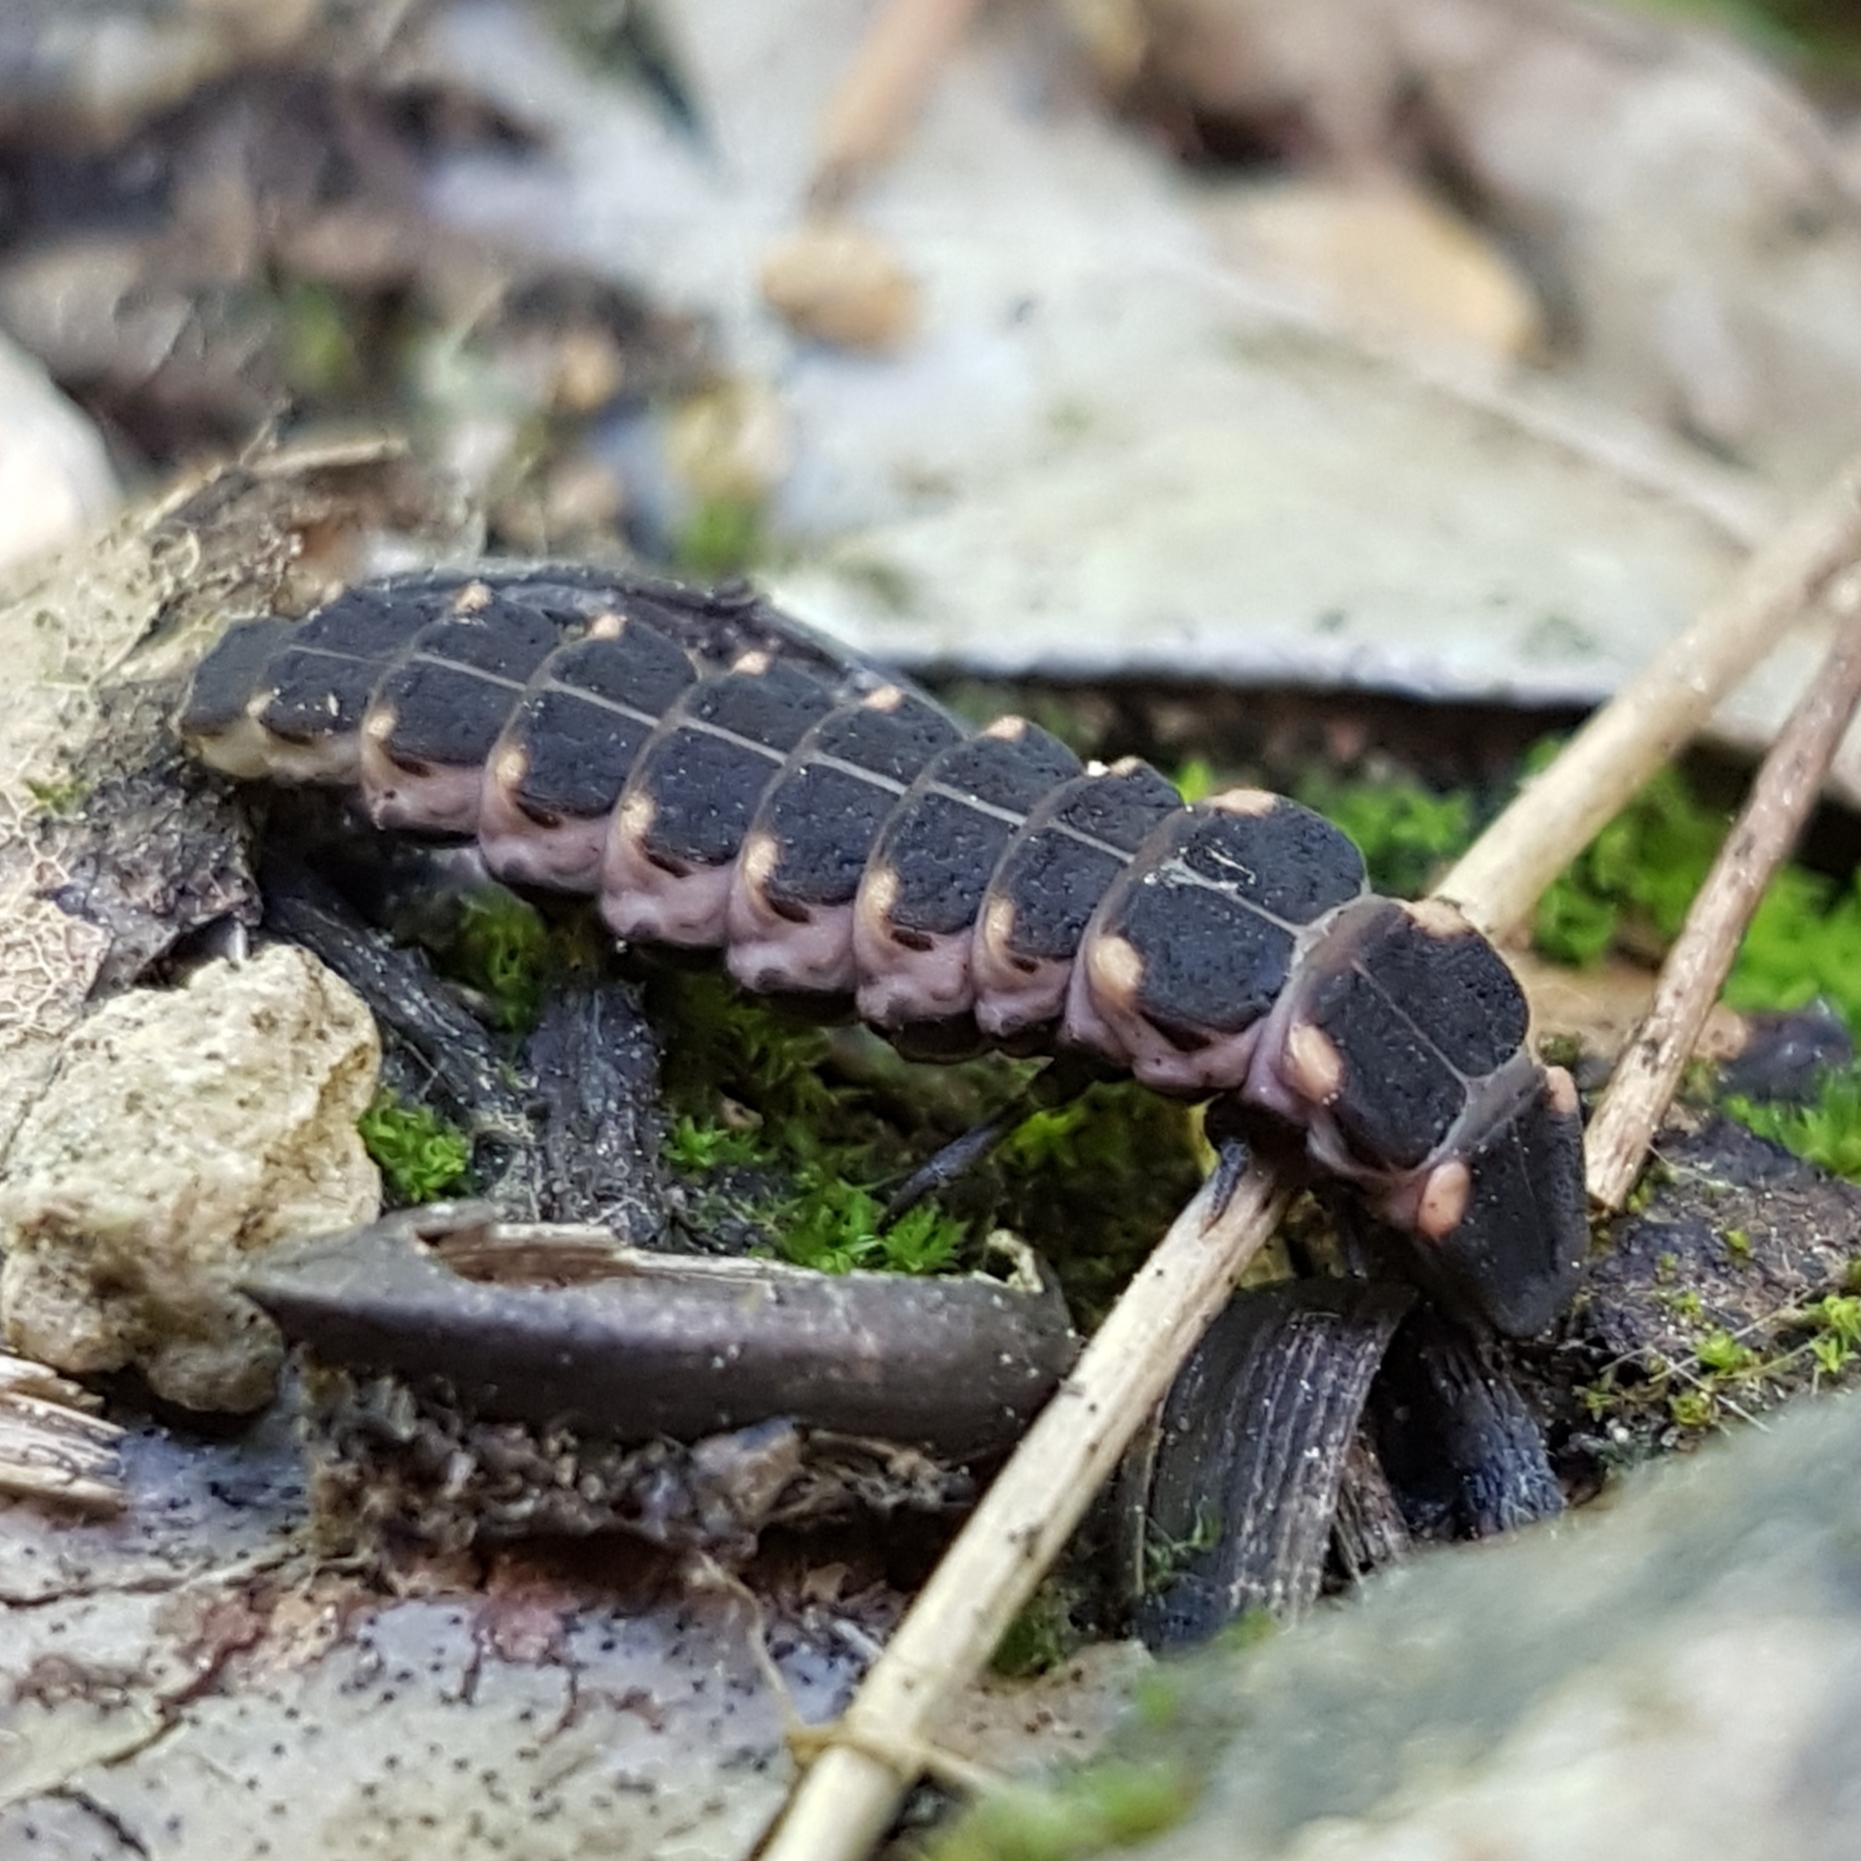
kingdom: Animalia
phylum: Arthropoda
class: Insecta
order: Coleoptera
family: Lampyridae
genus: Lampyris
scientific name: Lampyris noctiluca
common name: Glow-worm
